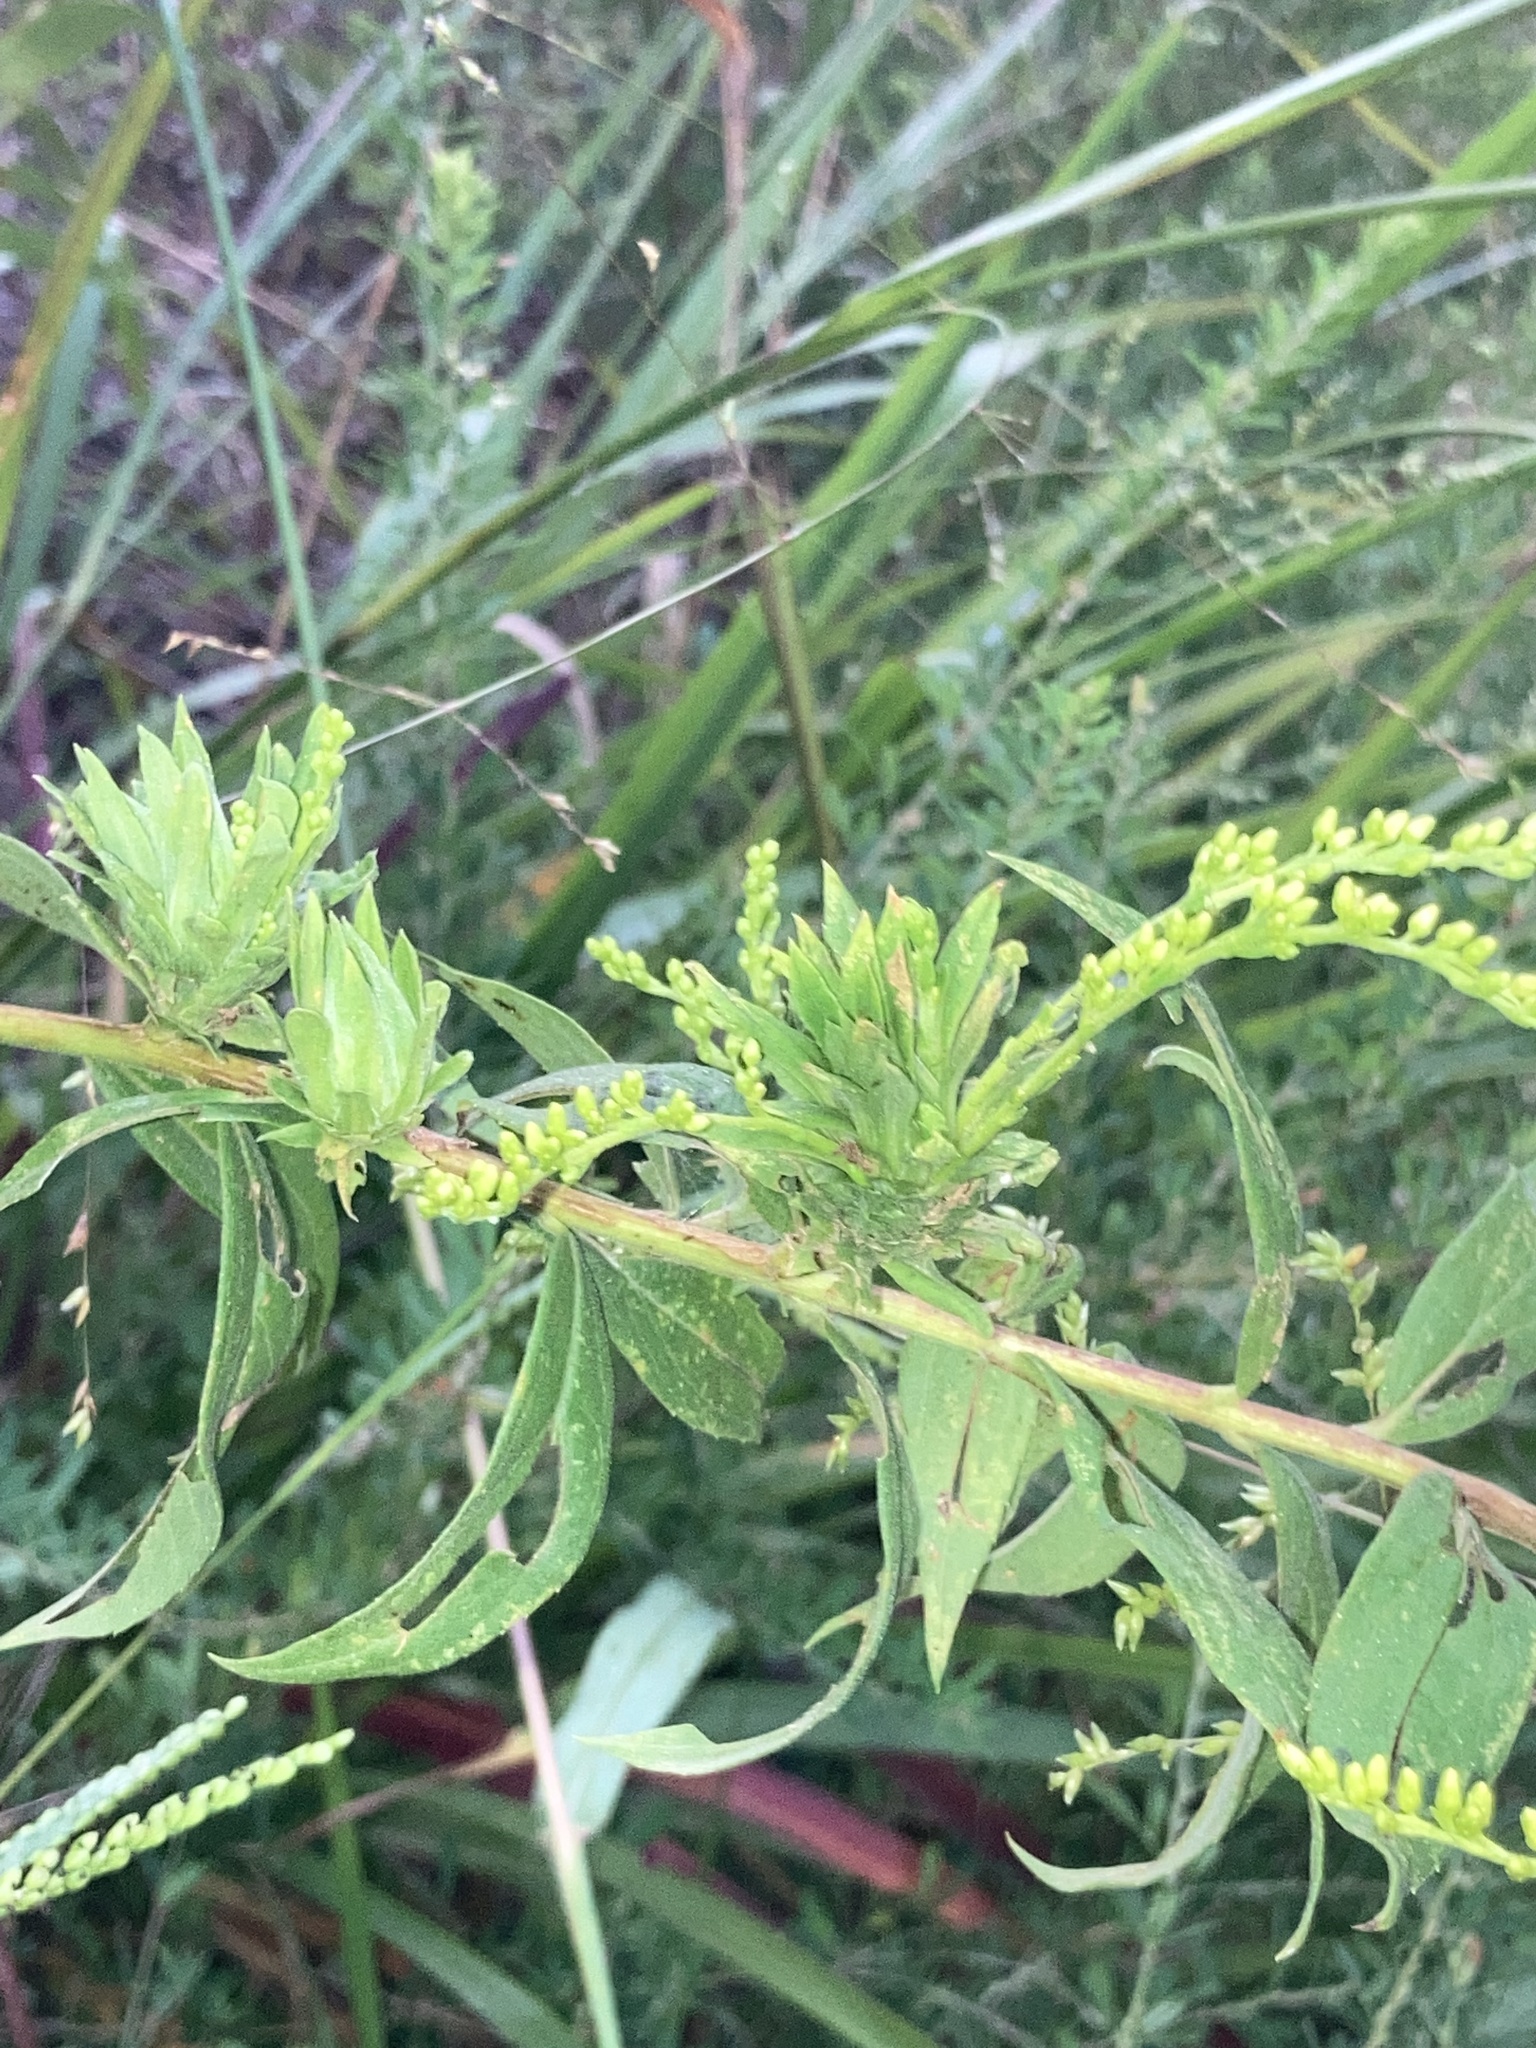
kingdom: Animalia
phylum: Arthropoda
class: Insecta
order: Diptera
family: Tephritidae
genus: Procecidochares
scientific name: Procecidochares atra
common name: Goldenrod brussels sprout gall fly
